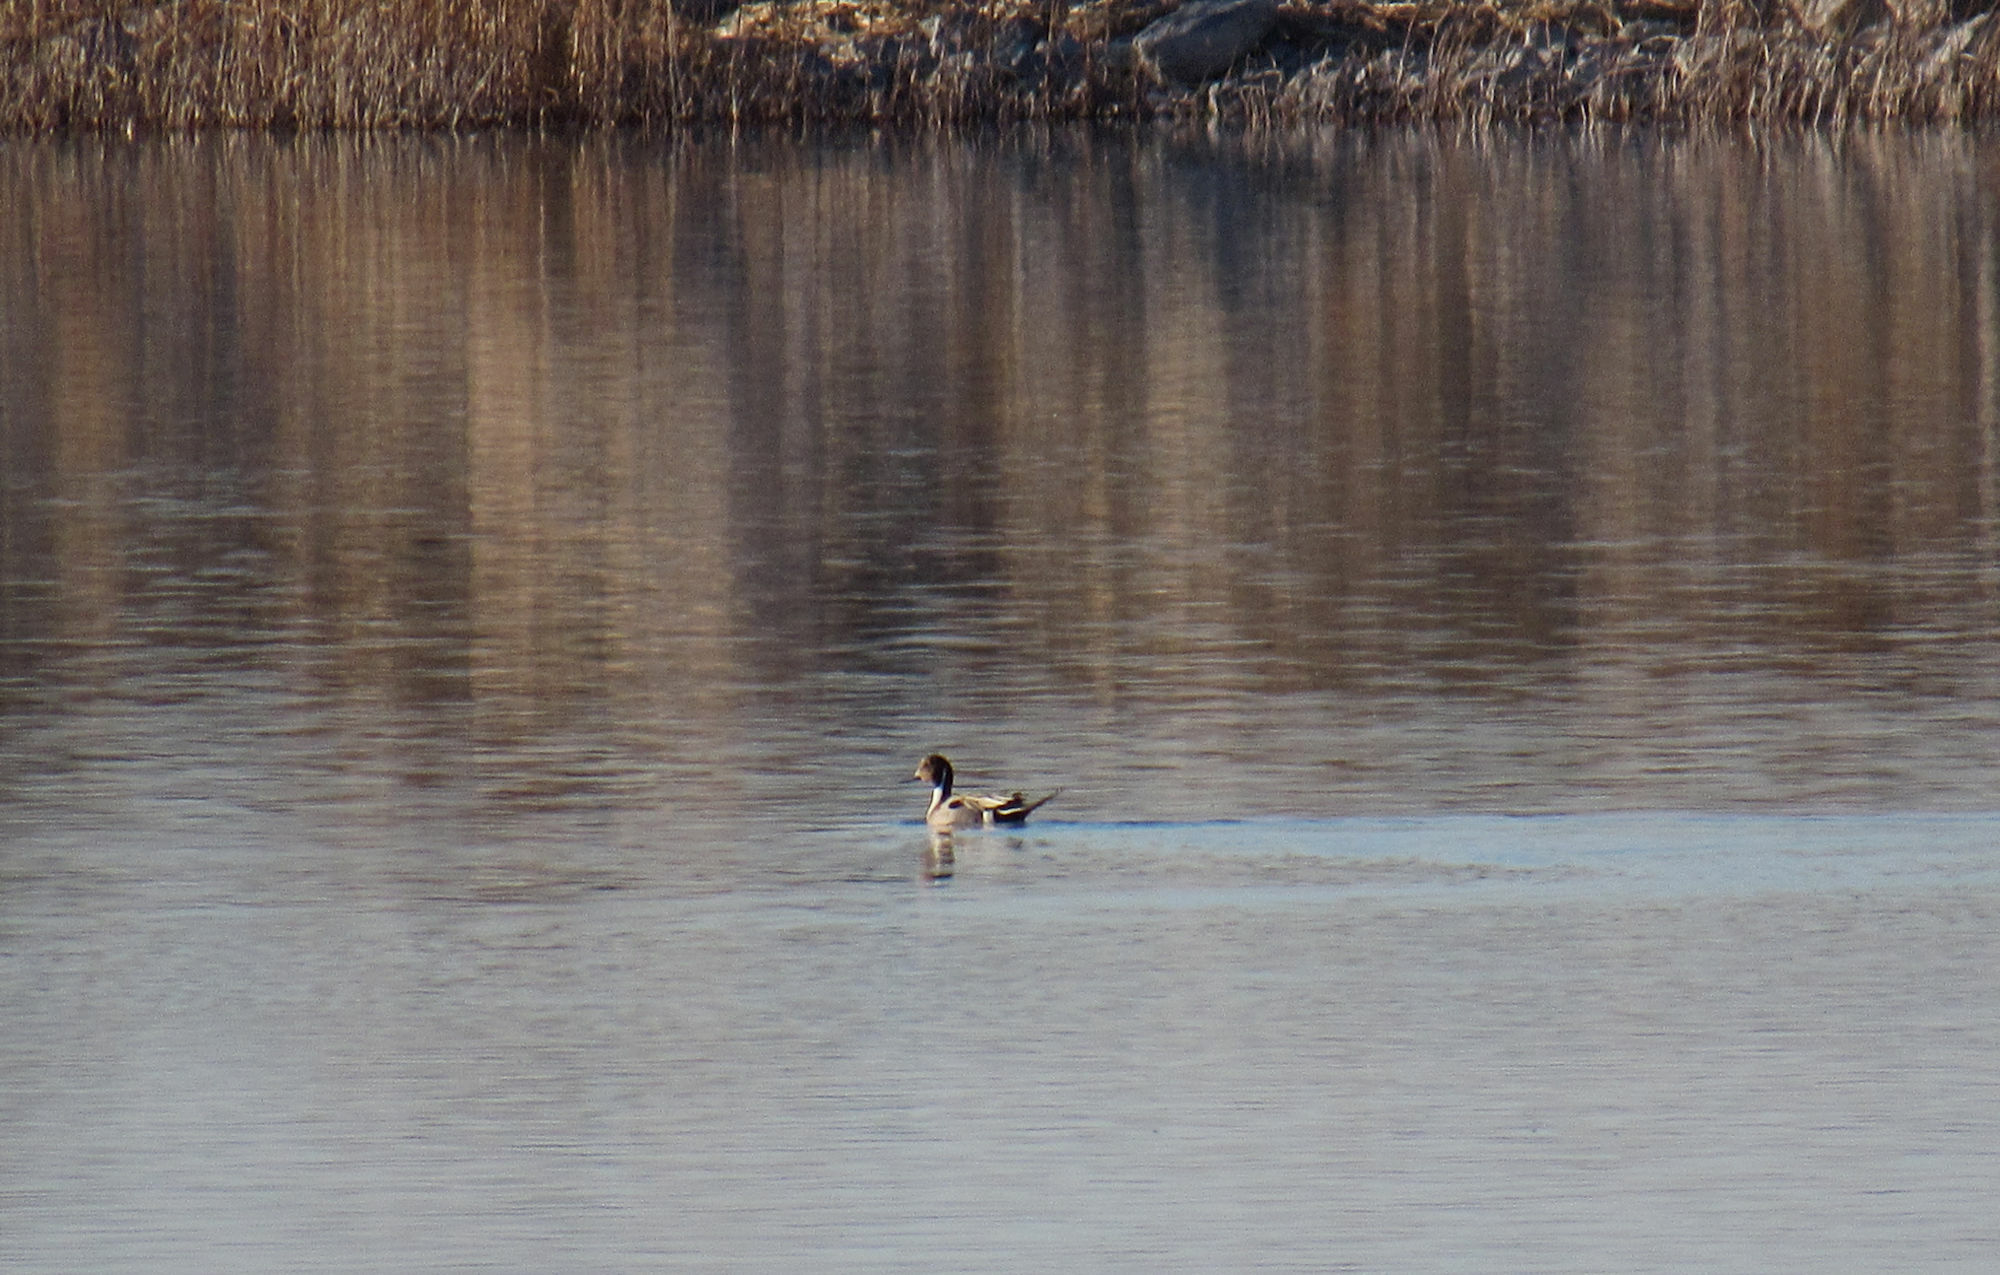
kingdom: Animalia
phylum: Chordata
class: Aves
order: Anseriformes
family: Anatidae
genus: Anas
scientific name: Anas acuta
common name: Northern pintail
